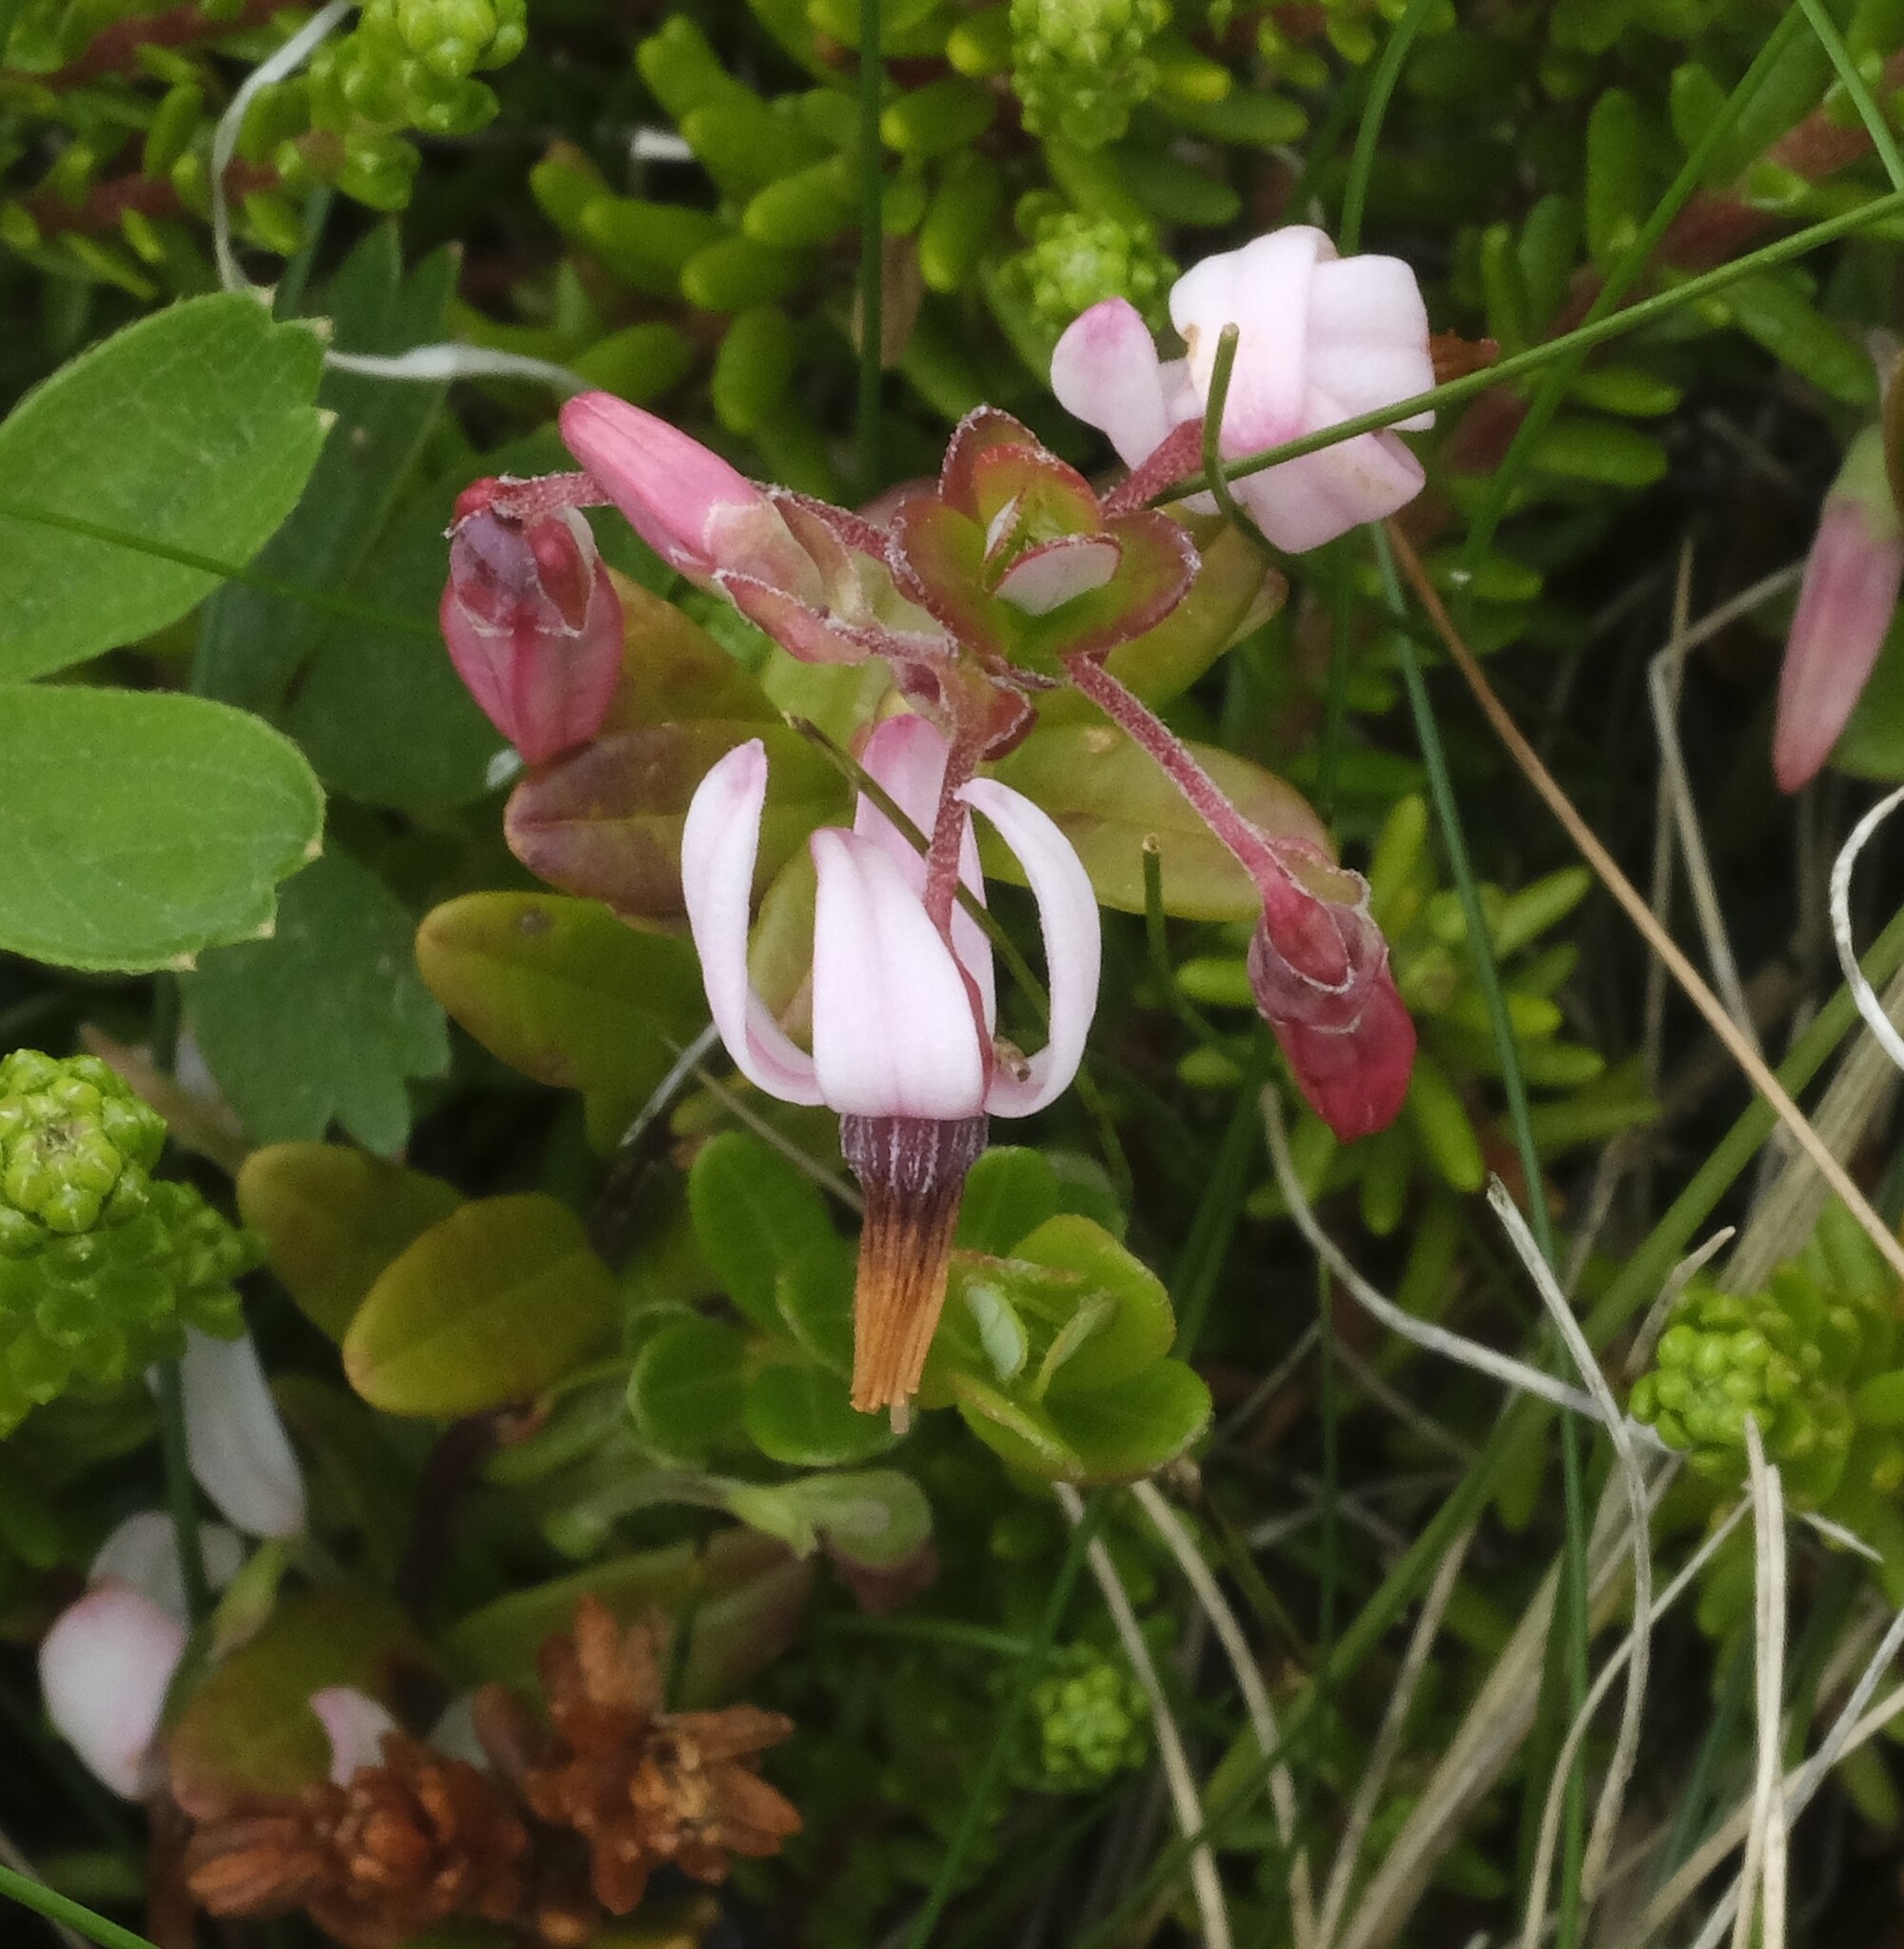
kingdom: Plantae
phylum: Tracheophyta
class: Magnoliopsida
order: Ericales
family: Ericaceae
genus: Vaccinium
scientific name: Vaccinium macrocarpon
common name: American cranberry
